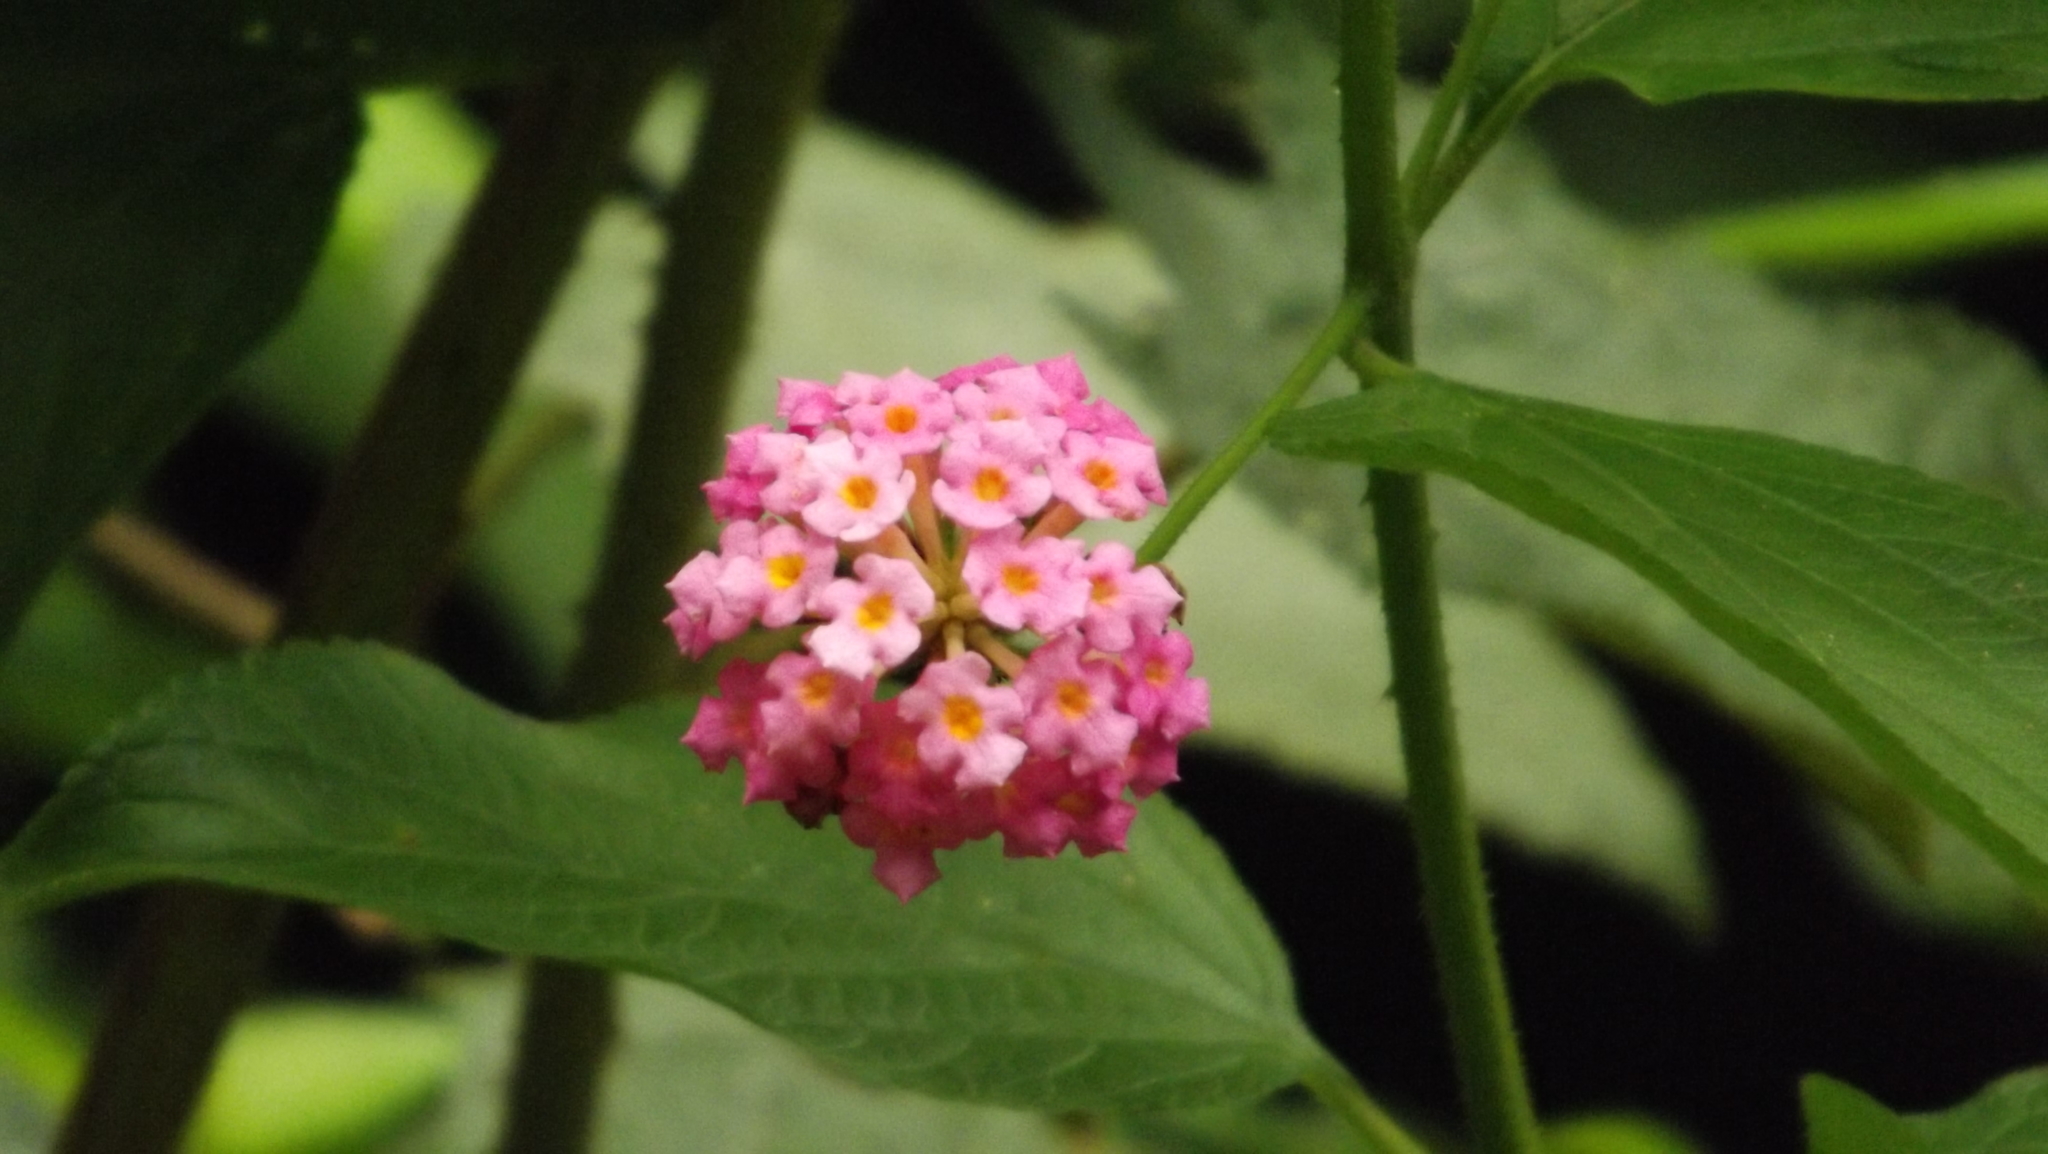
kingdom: Plantae
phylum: Tracheophyta
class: Magnoliopsida
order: Lamiales
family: Verbenaceae
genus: Lantana
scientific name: Lantana camara
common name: Lantana
